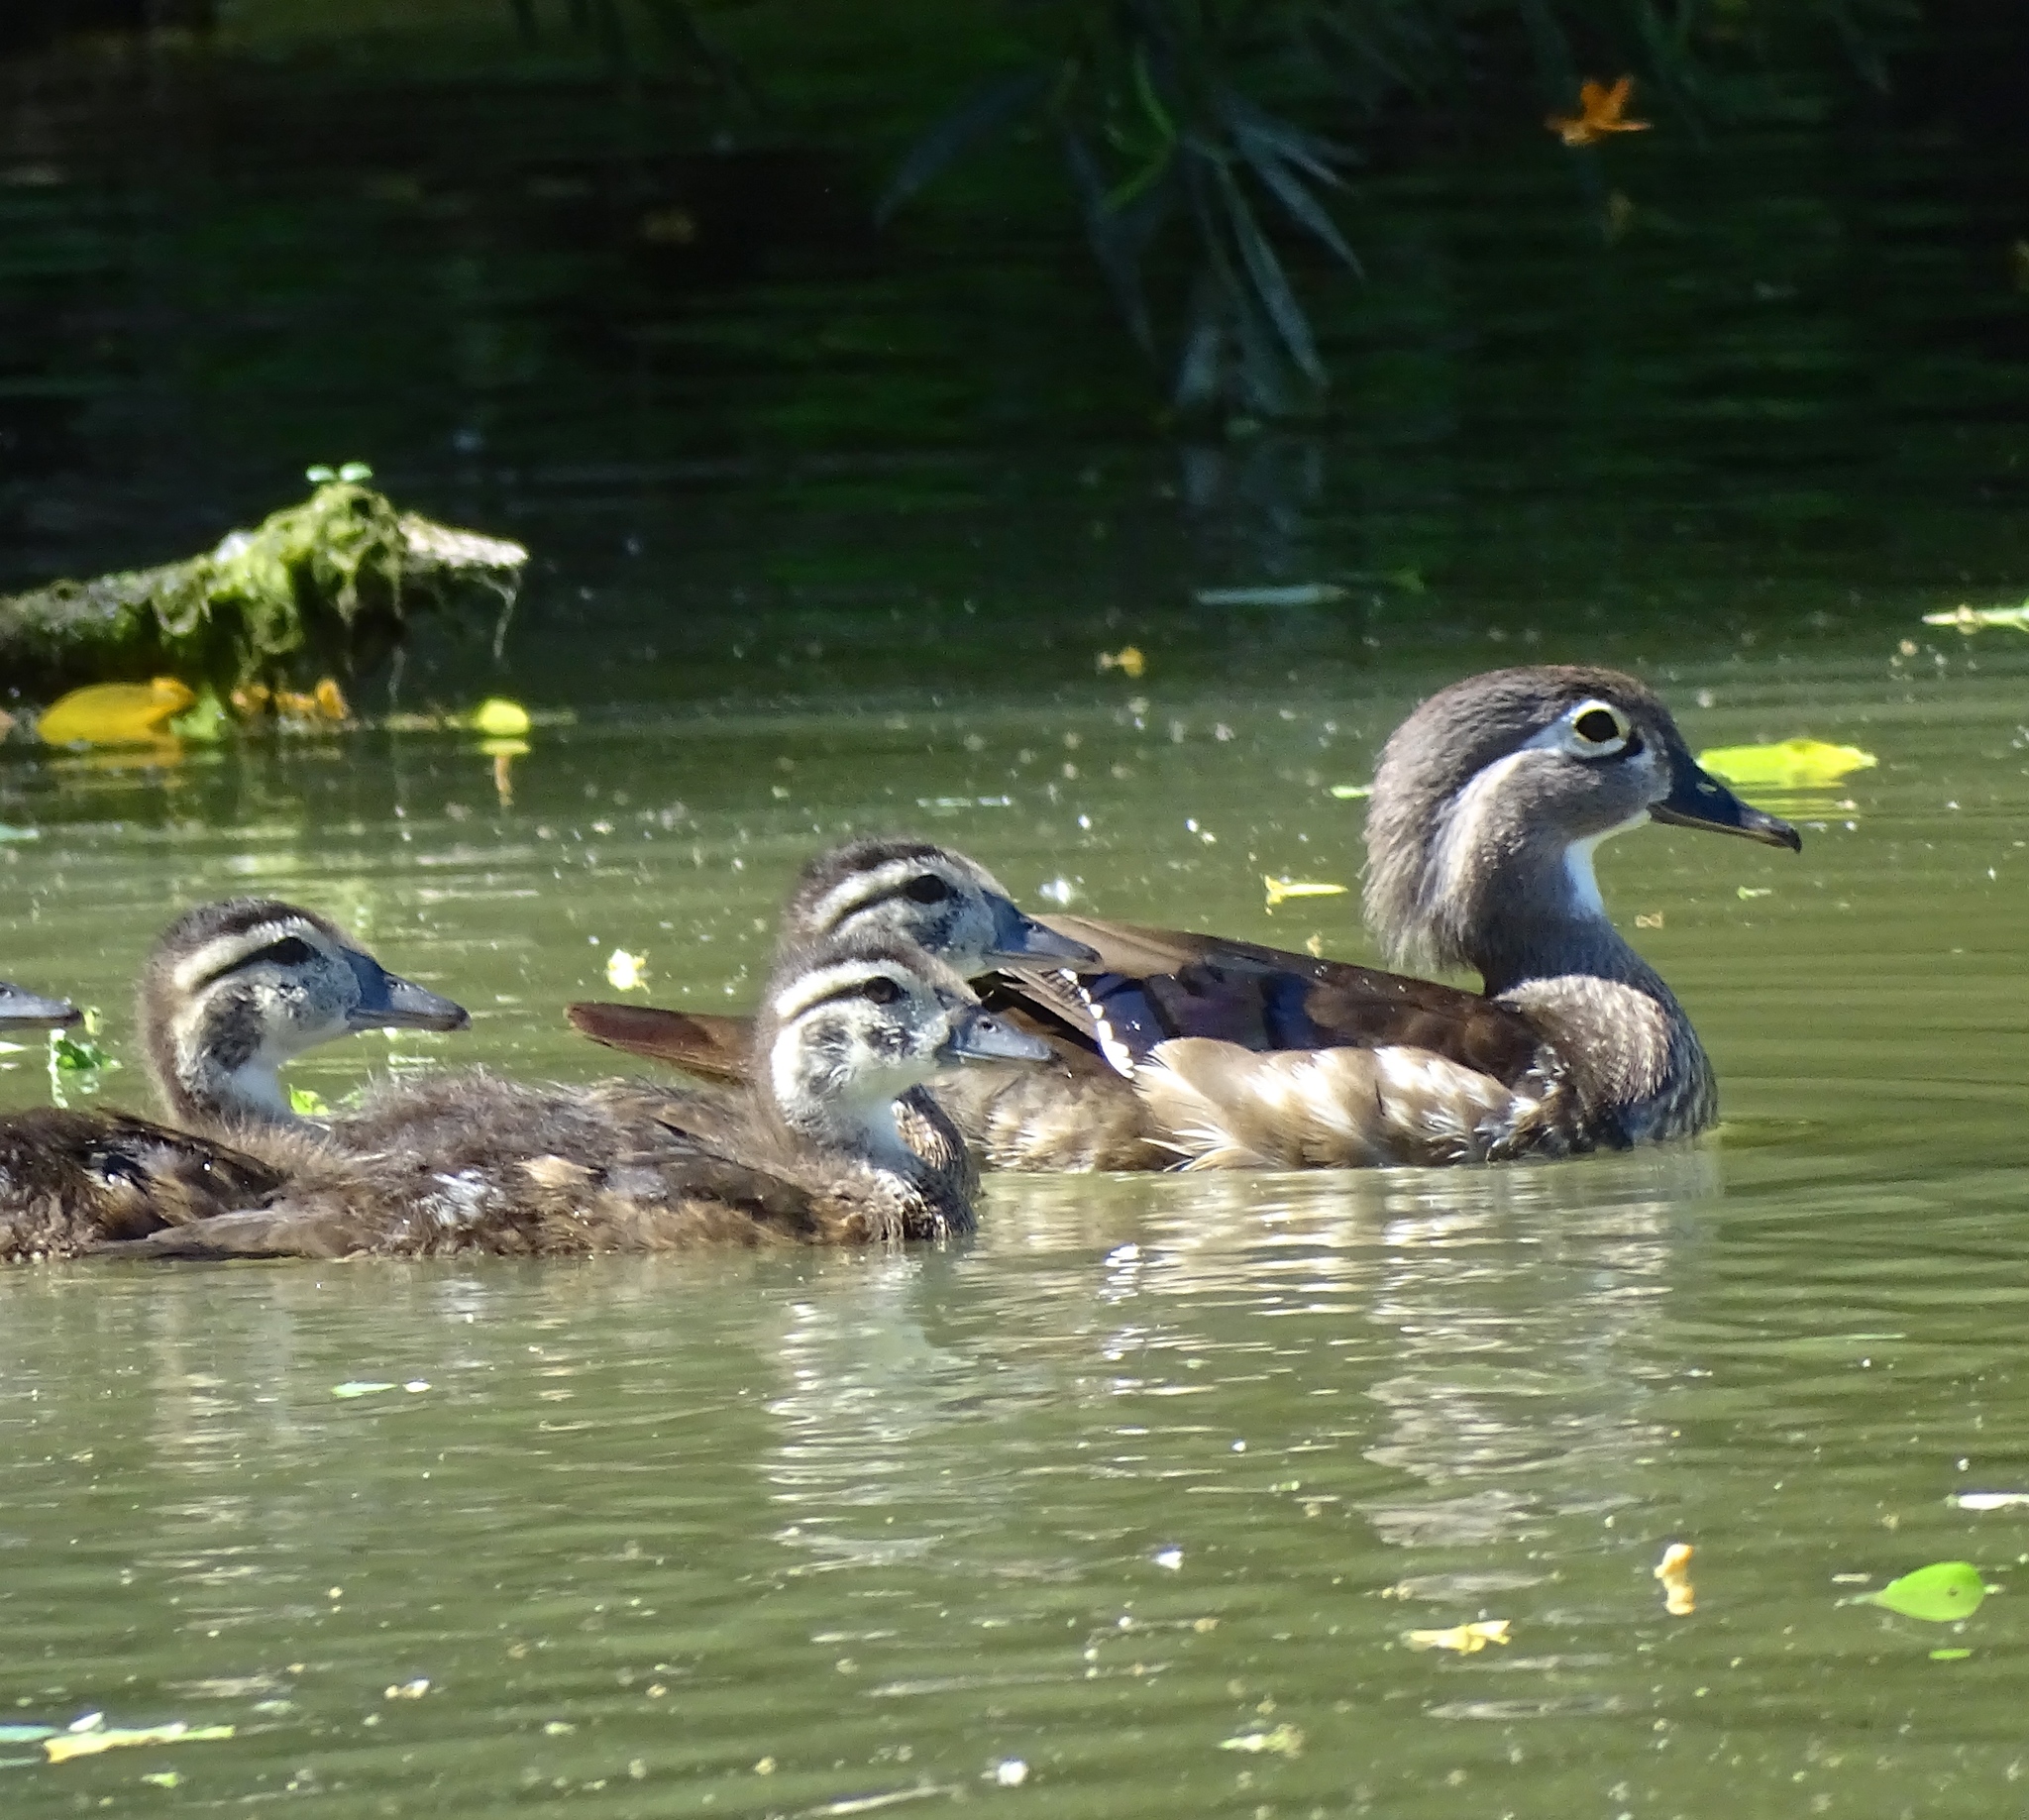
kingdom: Animalia
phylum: Chordata
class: Aves
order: Anseriformes
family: Anatidae
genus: Aix
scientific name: Aix sponsa
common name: Wood duck
